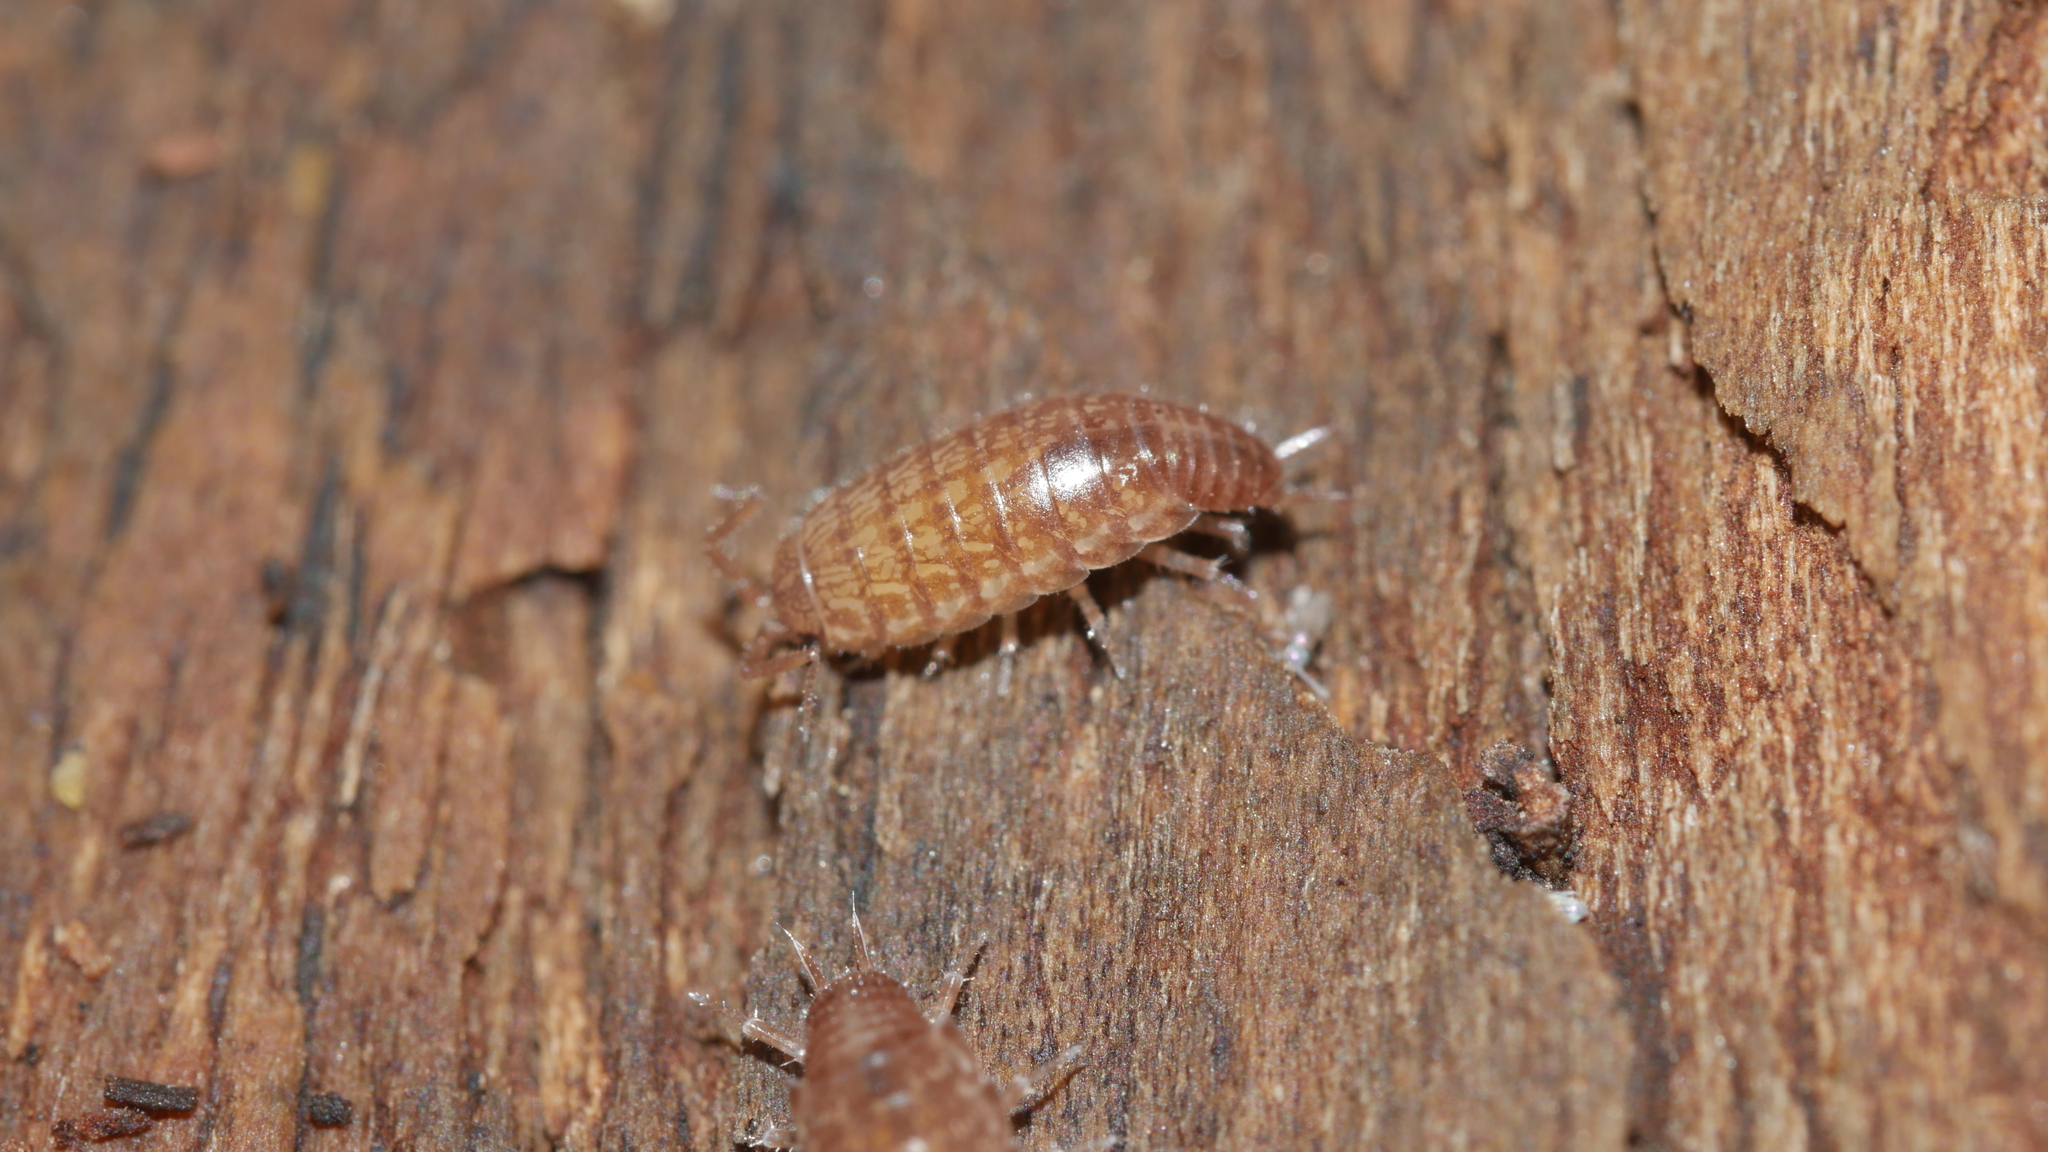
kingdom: Animalia
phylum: Arthropoda
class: Malacostraca
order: Isopoda
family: Philosciidae
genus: Chaetophiloscia
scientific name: Chaetophiloscia sicula
